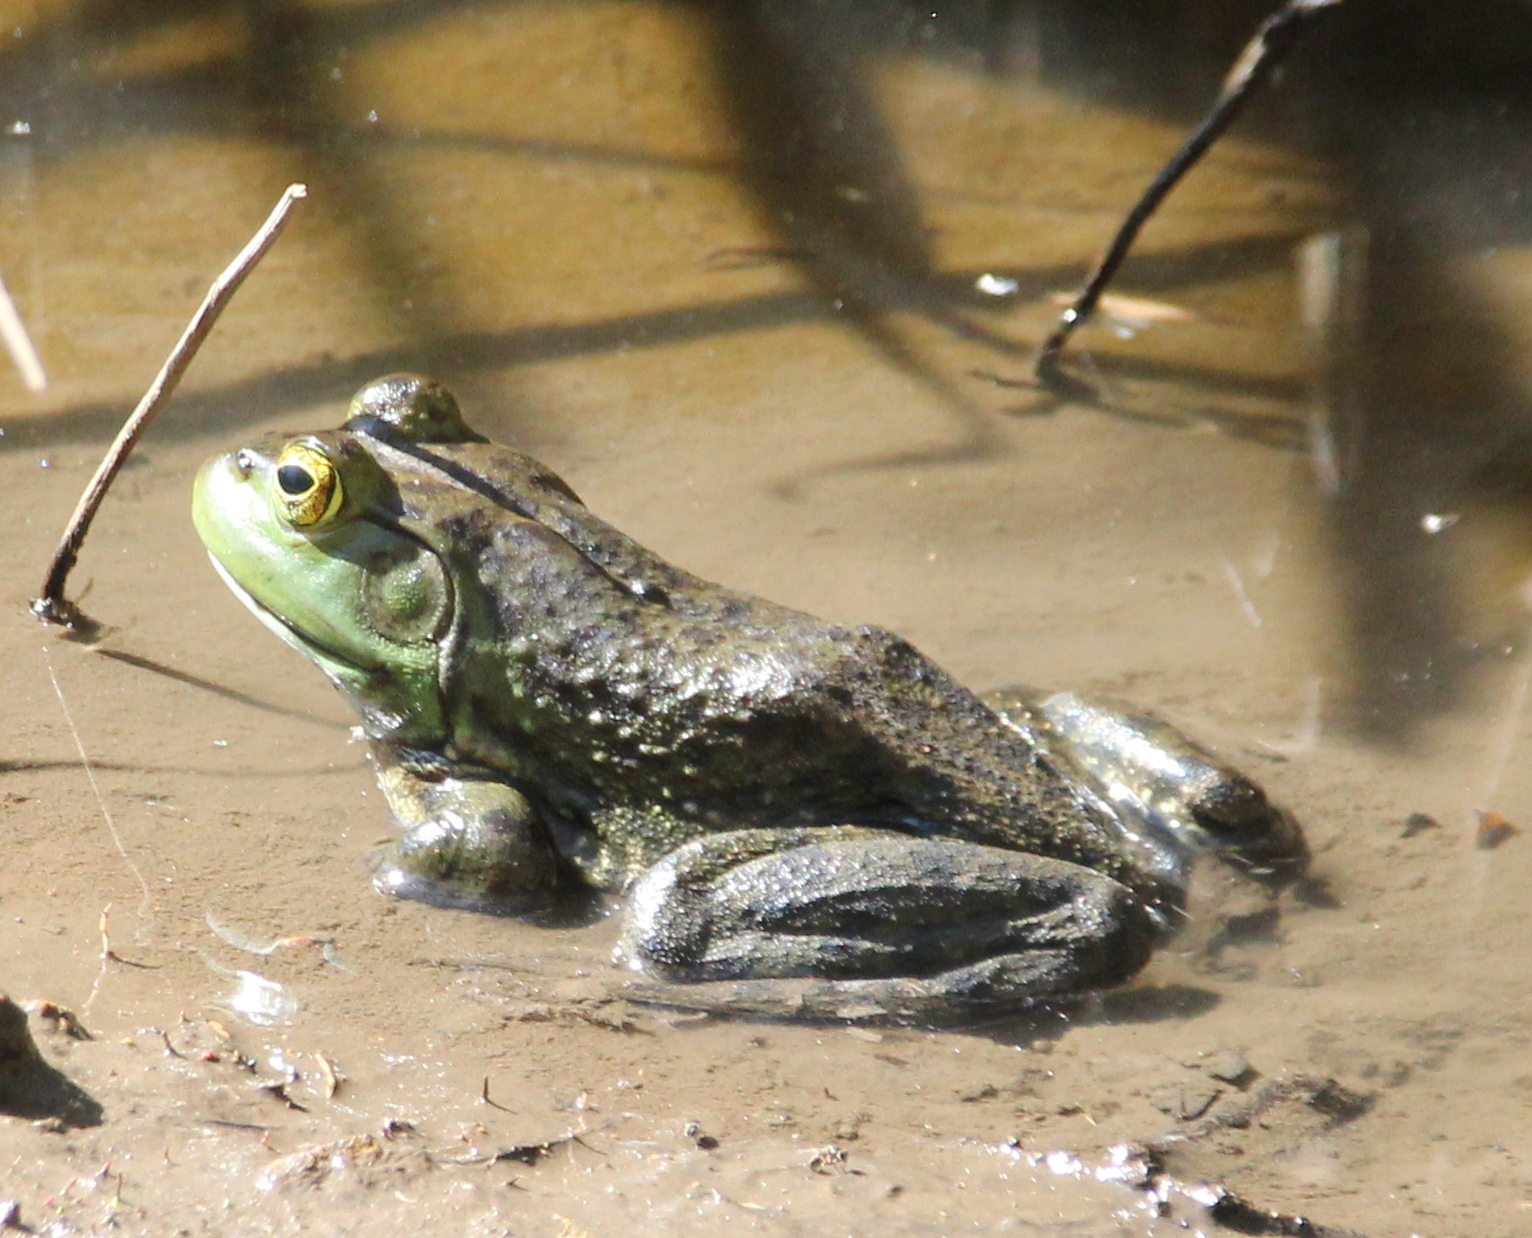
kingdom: Animalia
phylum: Chordata
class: Amphibia
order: Anura
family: Ranidae
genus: Lithobates
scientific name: Lithobates catesbeianus
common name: American bullfrog
